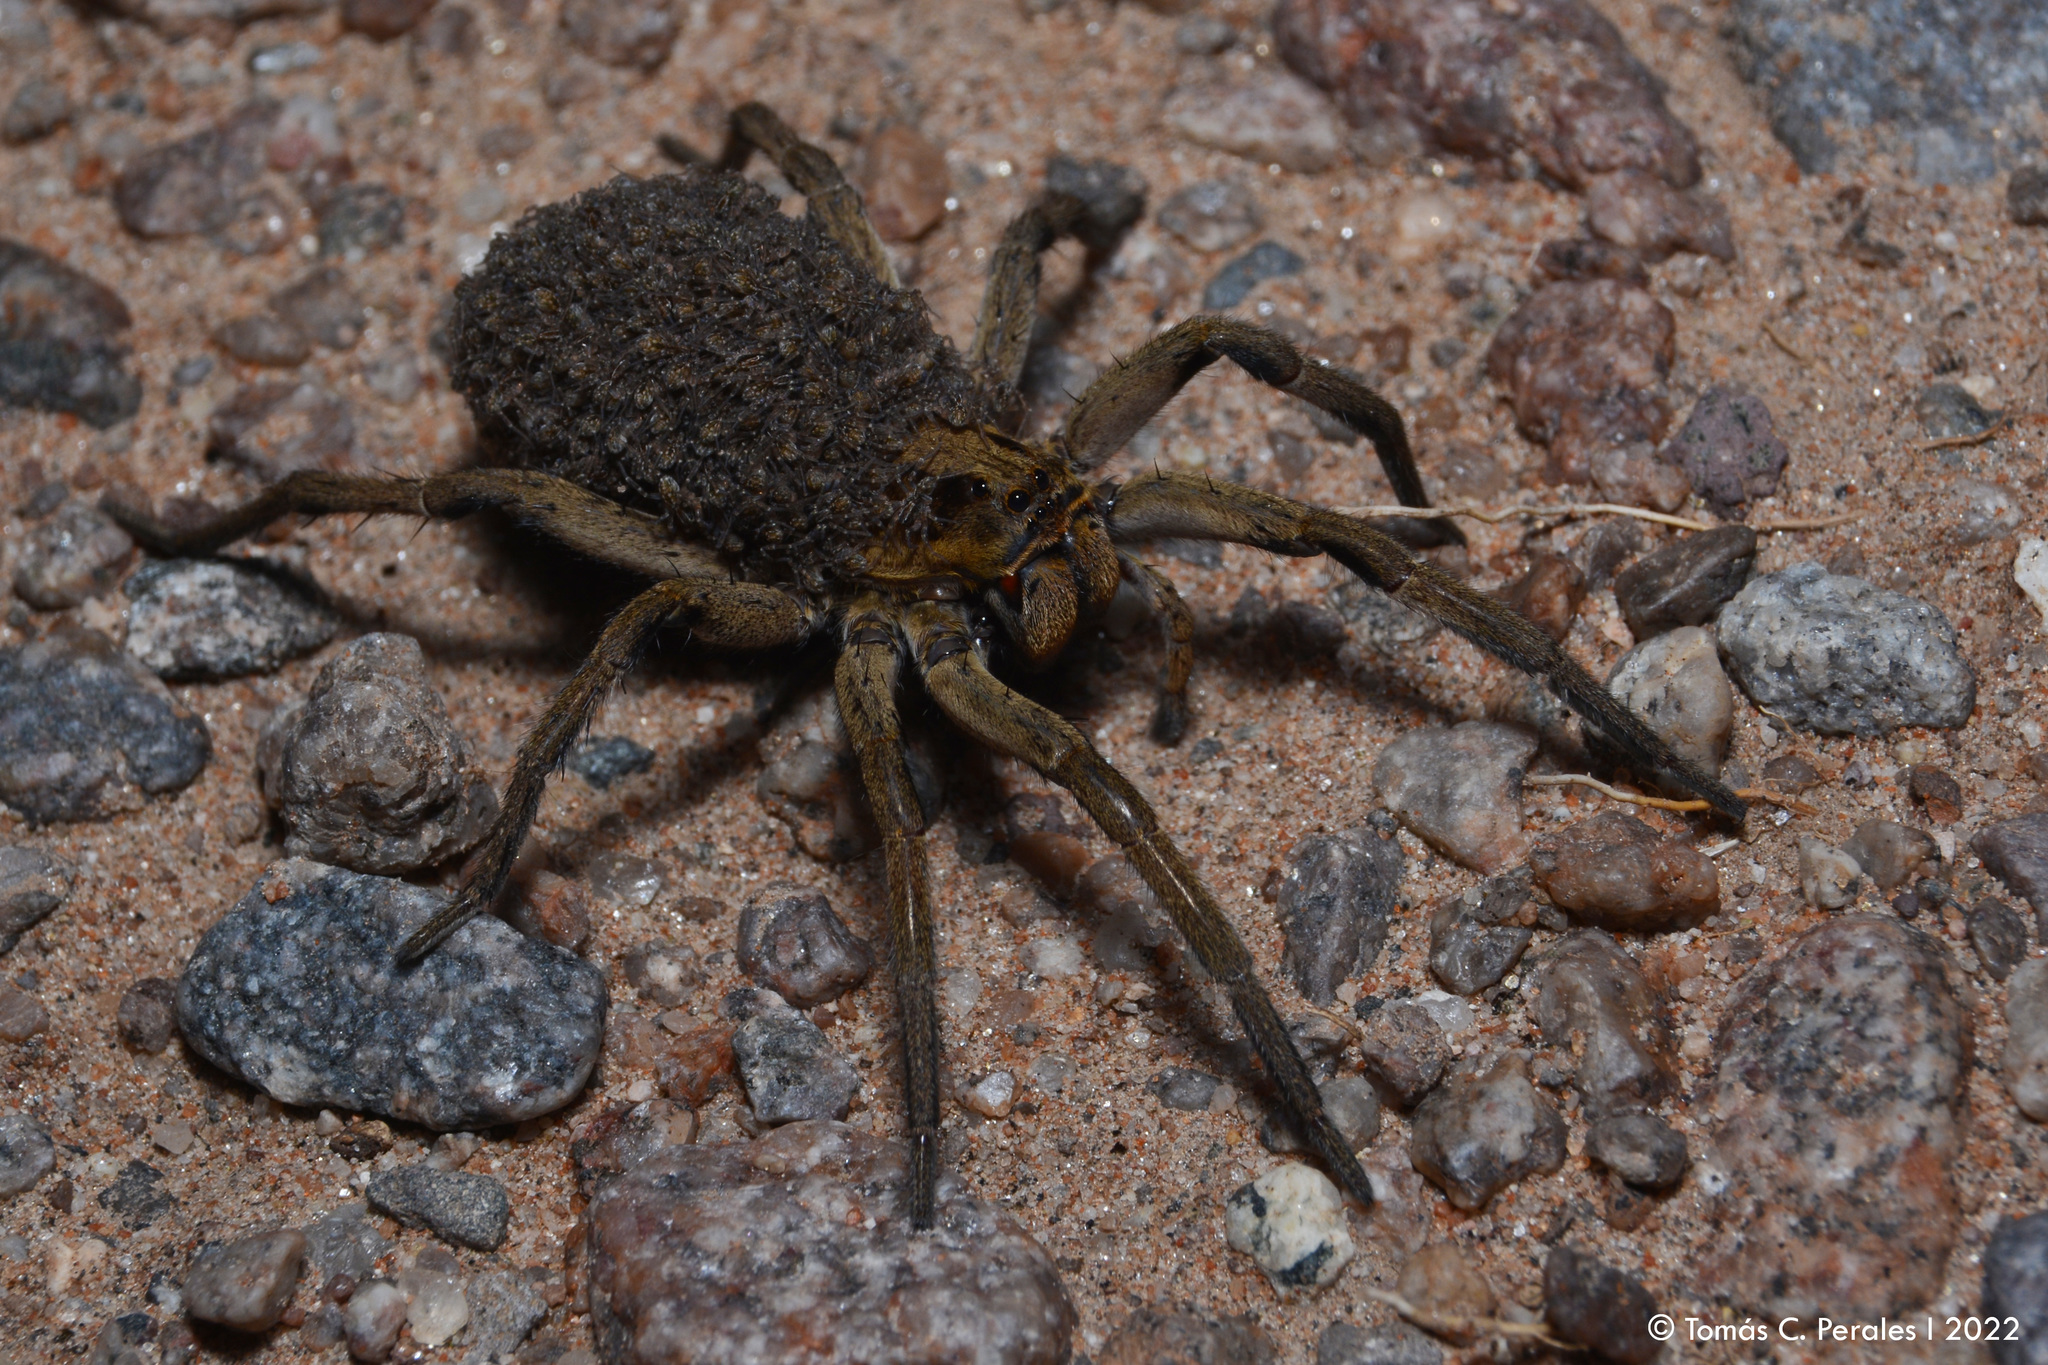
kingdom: Animalia
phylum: Arthropoda
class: Arachnida
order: Araneae
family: Lycosidae
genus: Lycosa
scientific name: Lycosa erythrognatha
